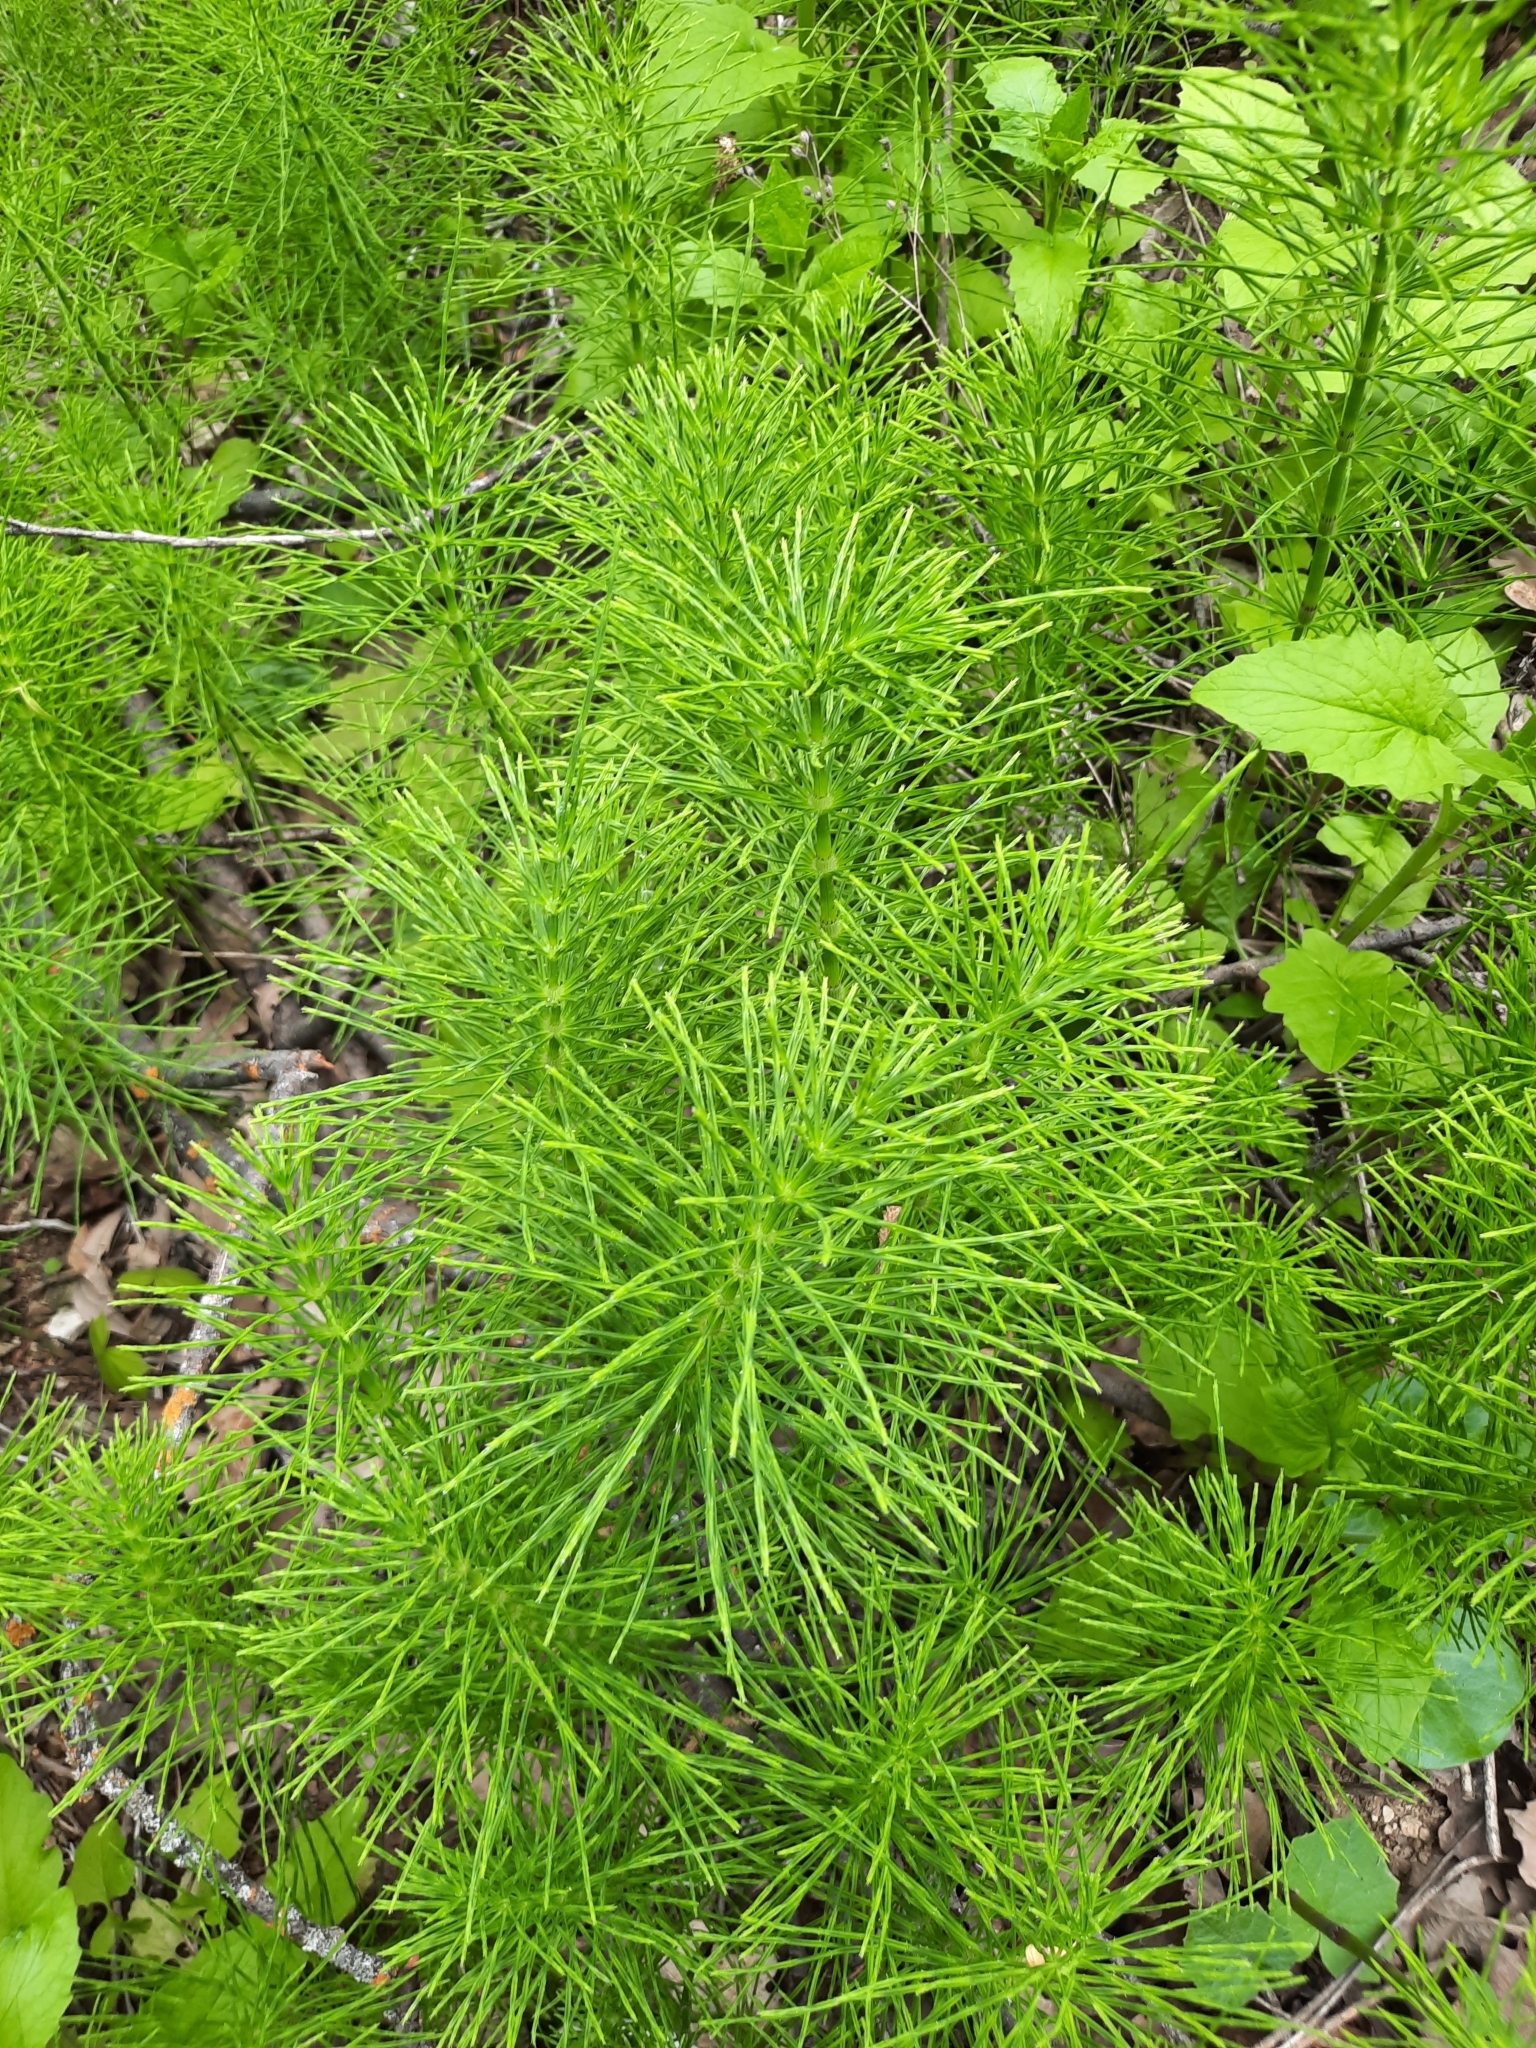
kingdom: Plantae
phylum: Tracheophyta
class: Polypodiopsida
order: Equisetales
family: Equisetaceae
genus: Equisetum
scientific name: Equisetum arvense
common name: Field horsetail
